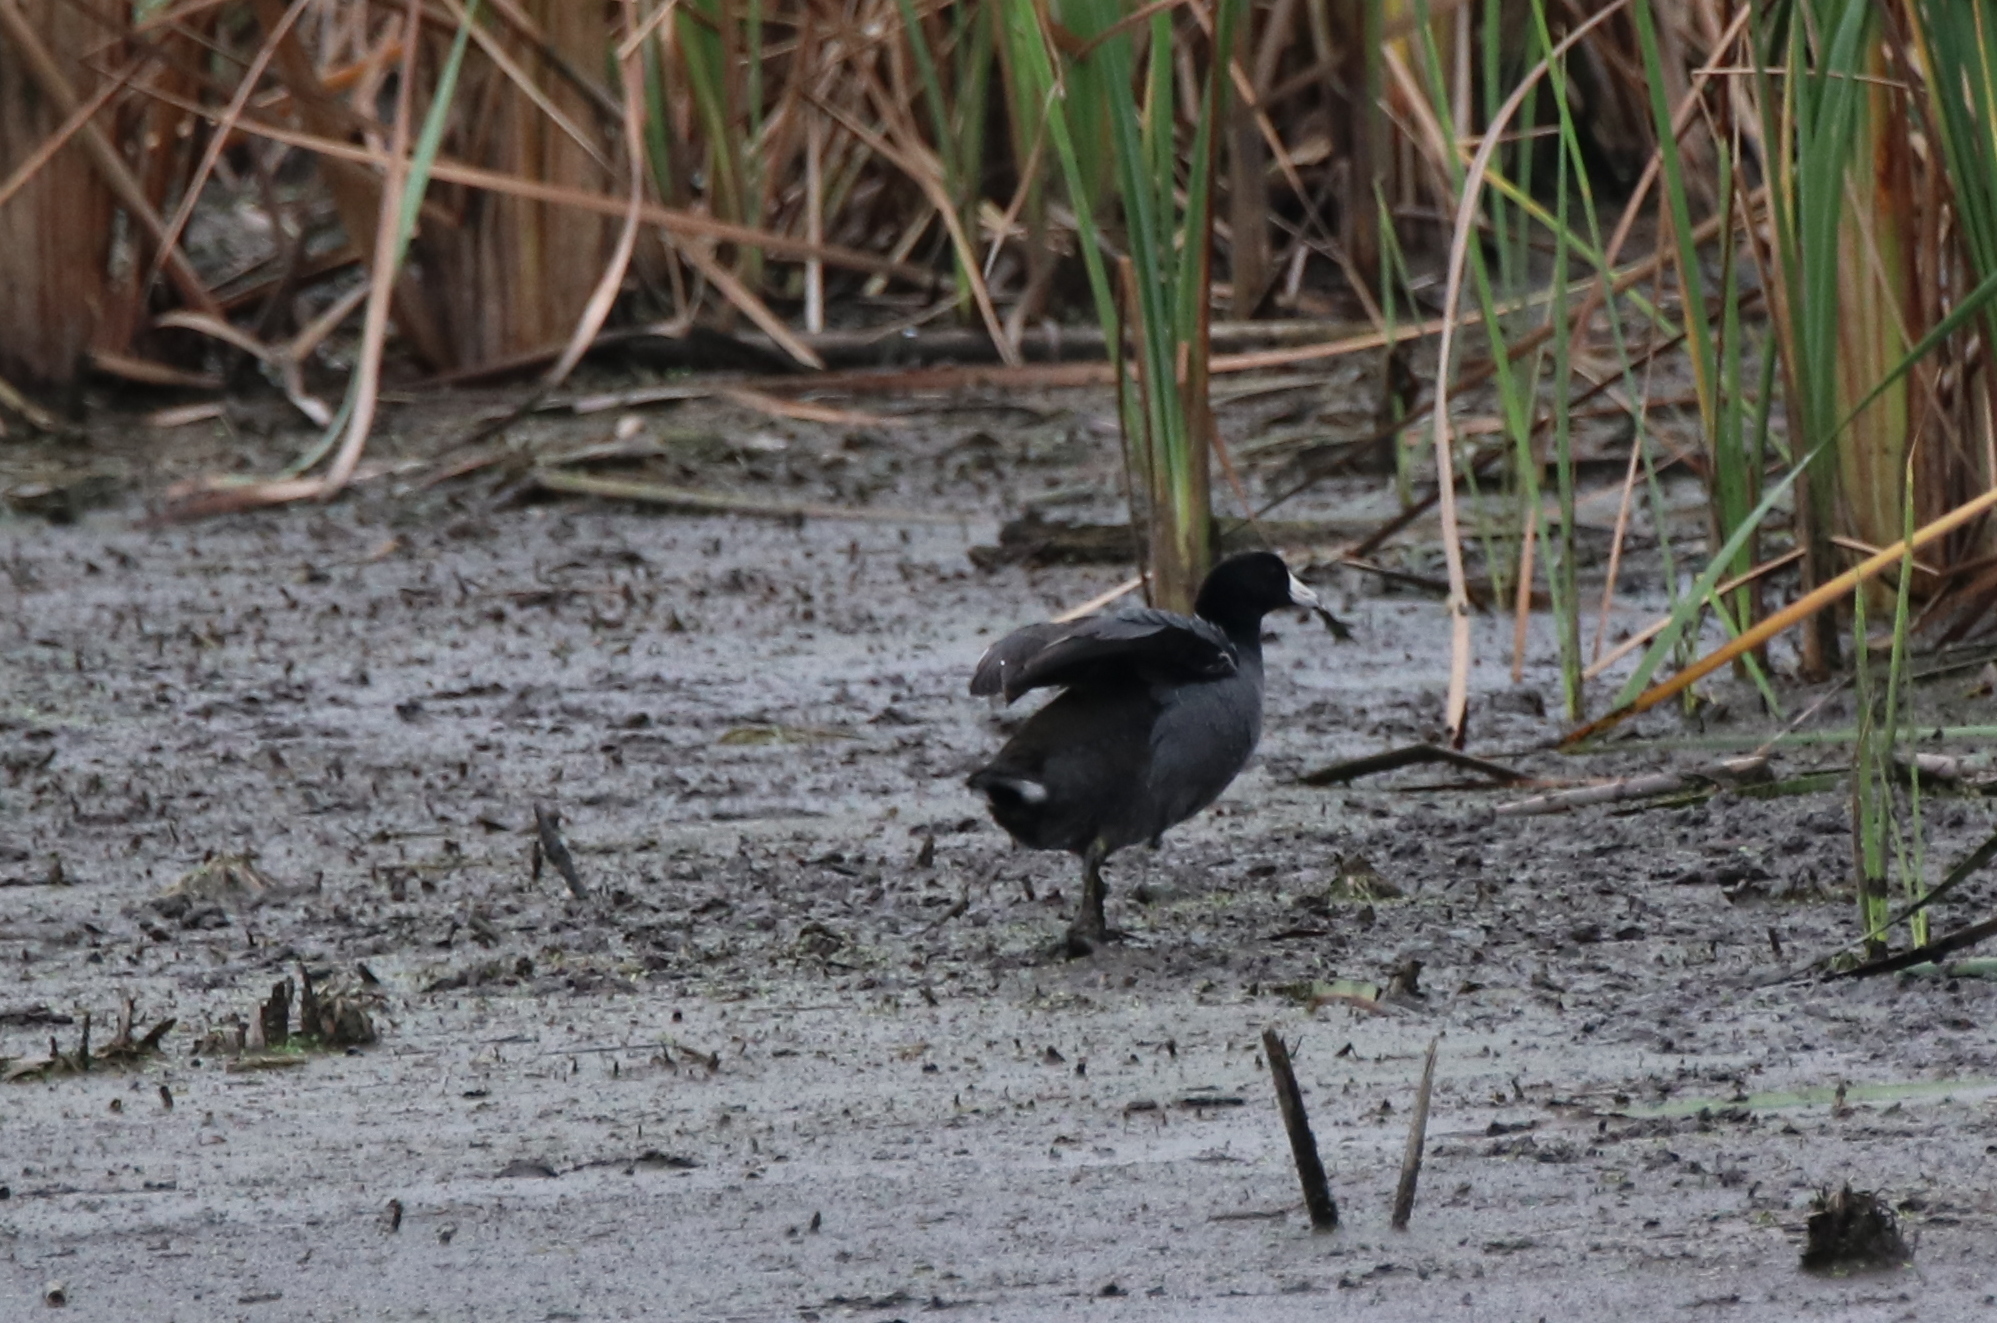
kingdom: Animalia
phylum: Chordata
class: Aves
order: Gruiformes
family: Rallidae
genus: Fulica
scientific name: Fulica americana
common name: American coot
